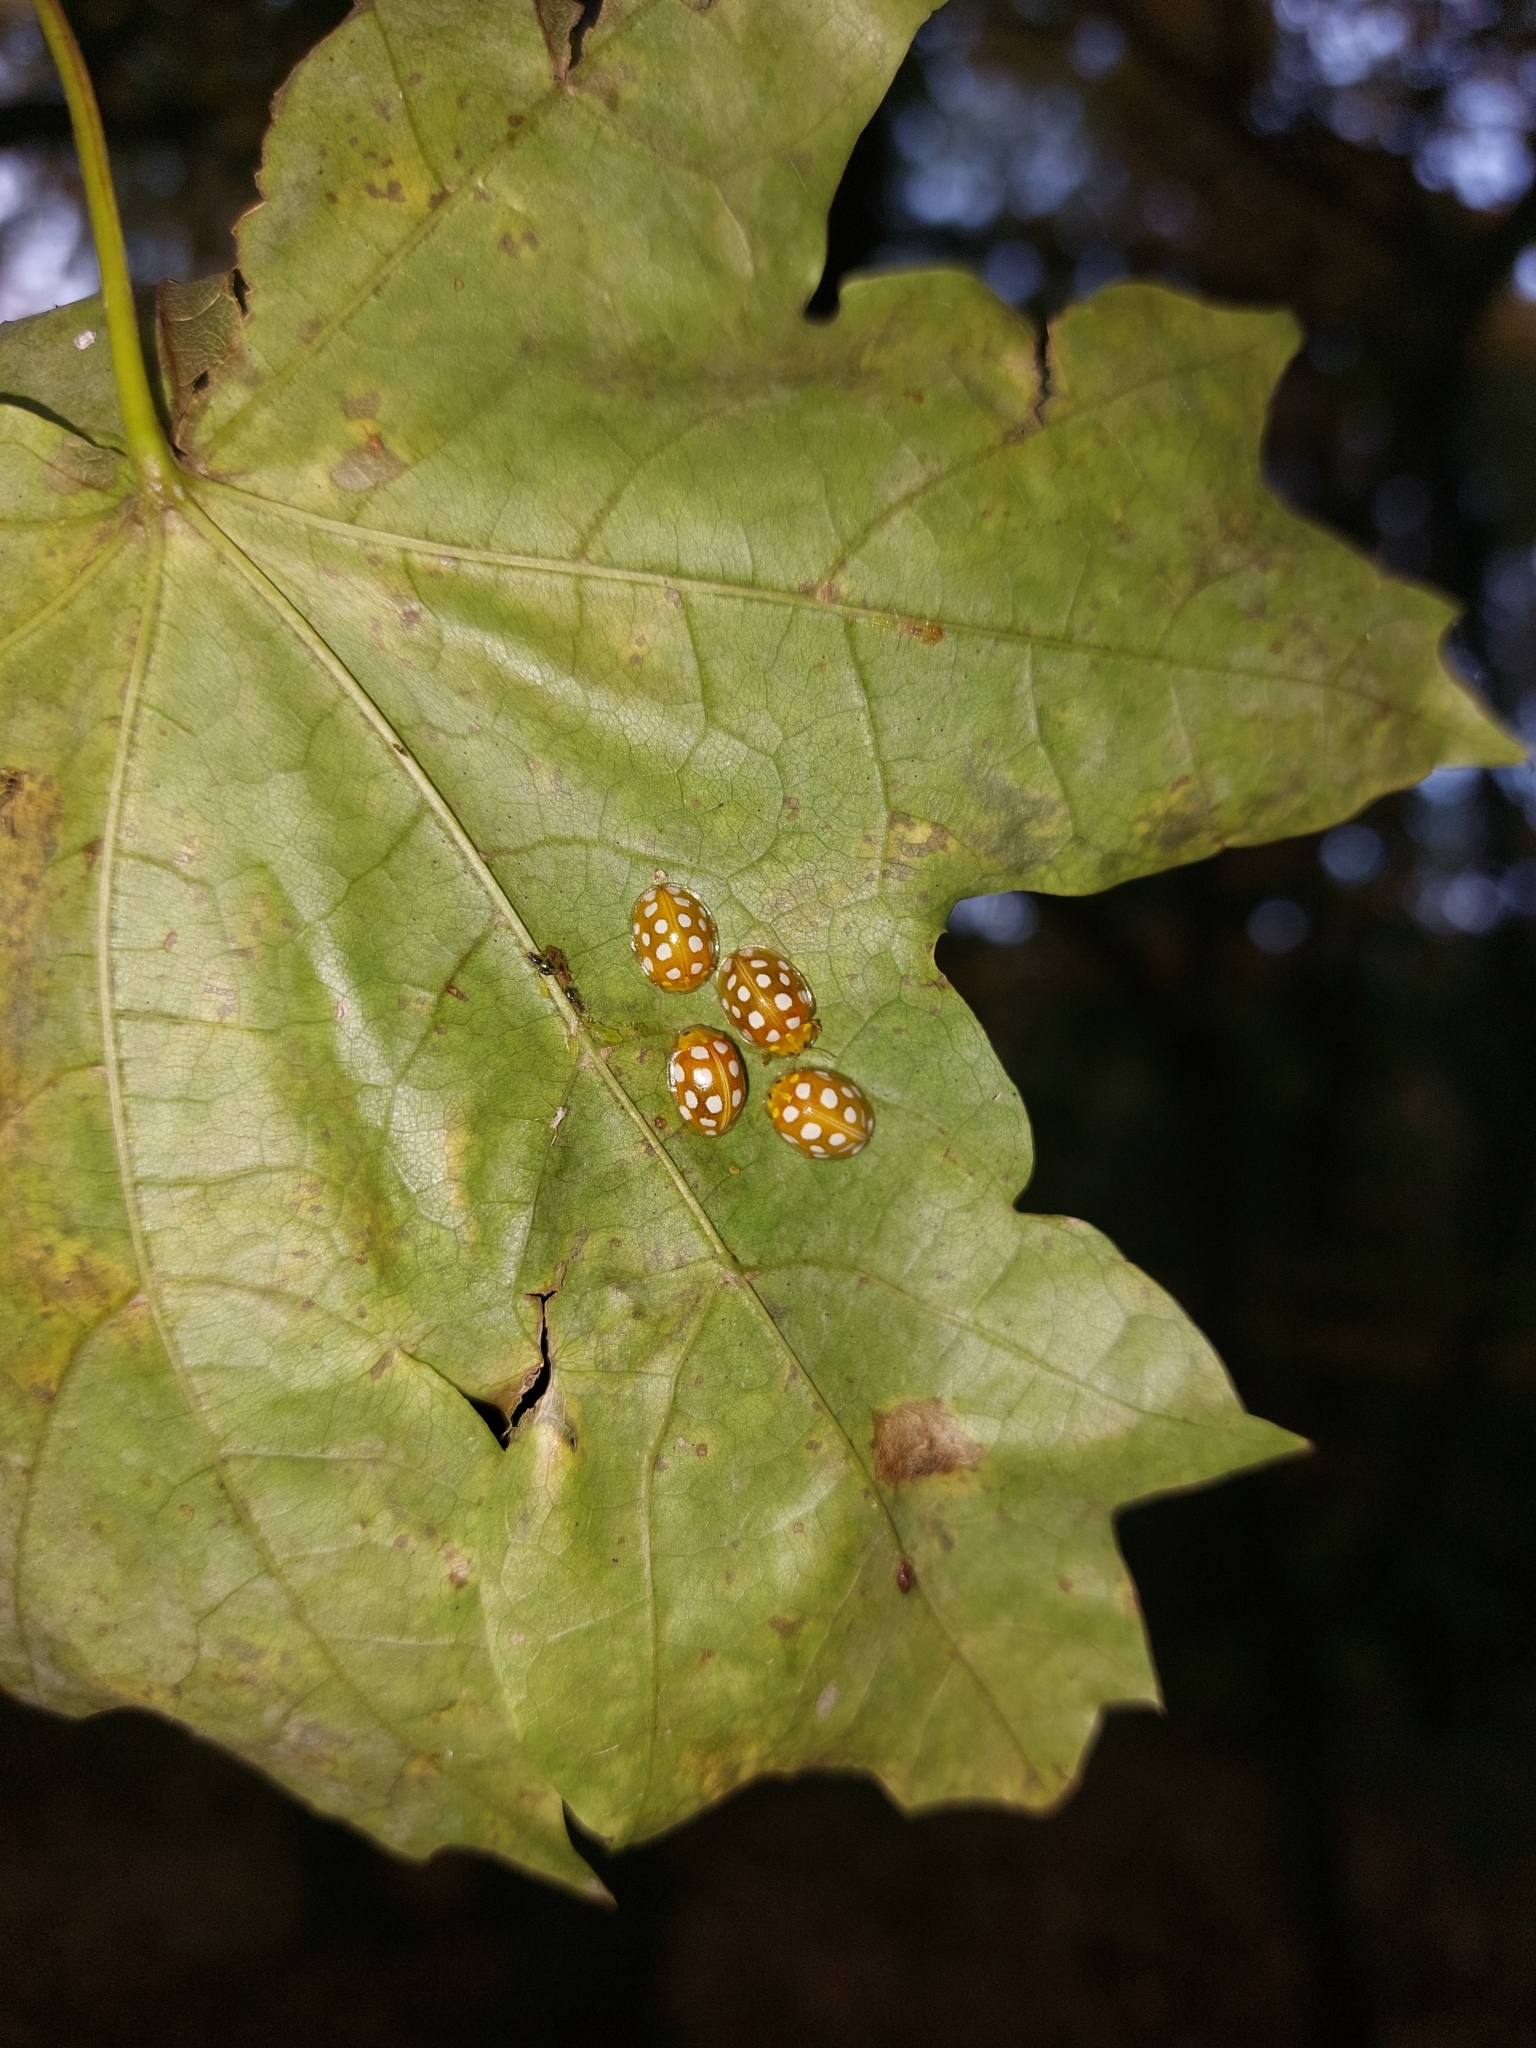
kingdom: Animalia
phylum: Arthropoda
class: Insecta
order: Coleoptera
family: Coccinellidae
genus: Halyzia
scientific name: Halyzia sedecimguttata
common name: Orange ladybird
